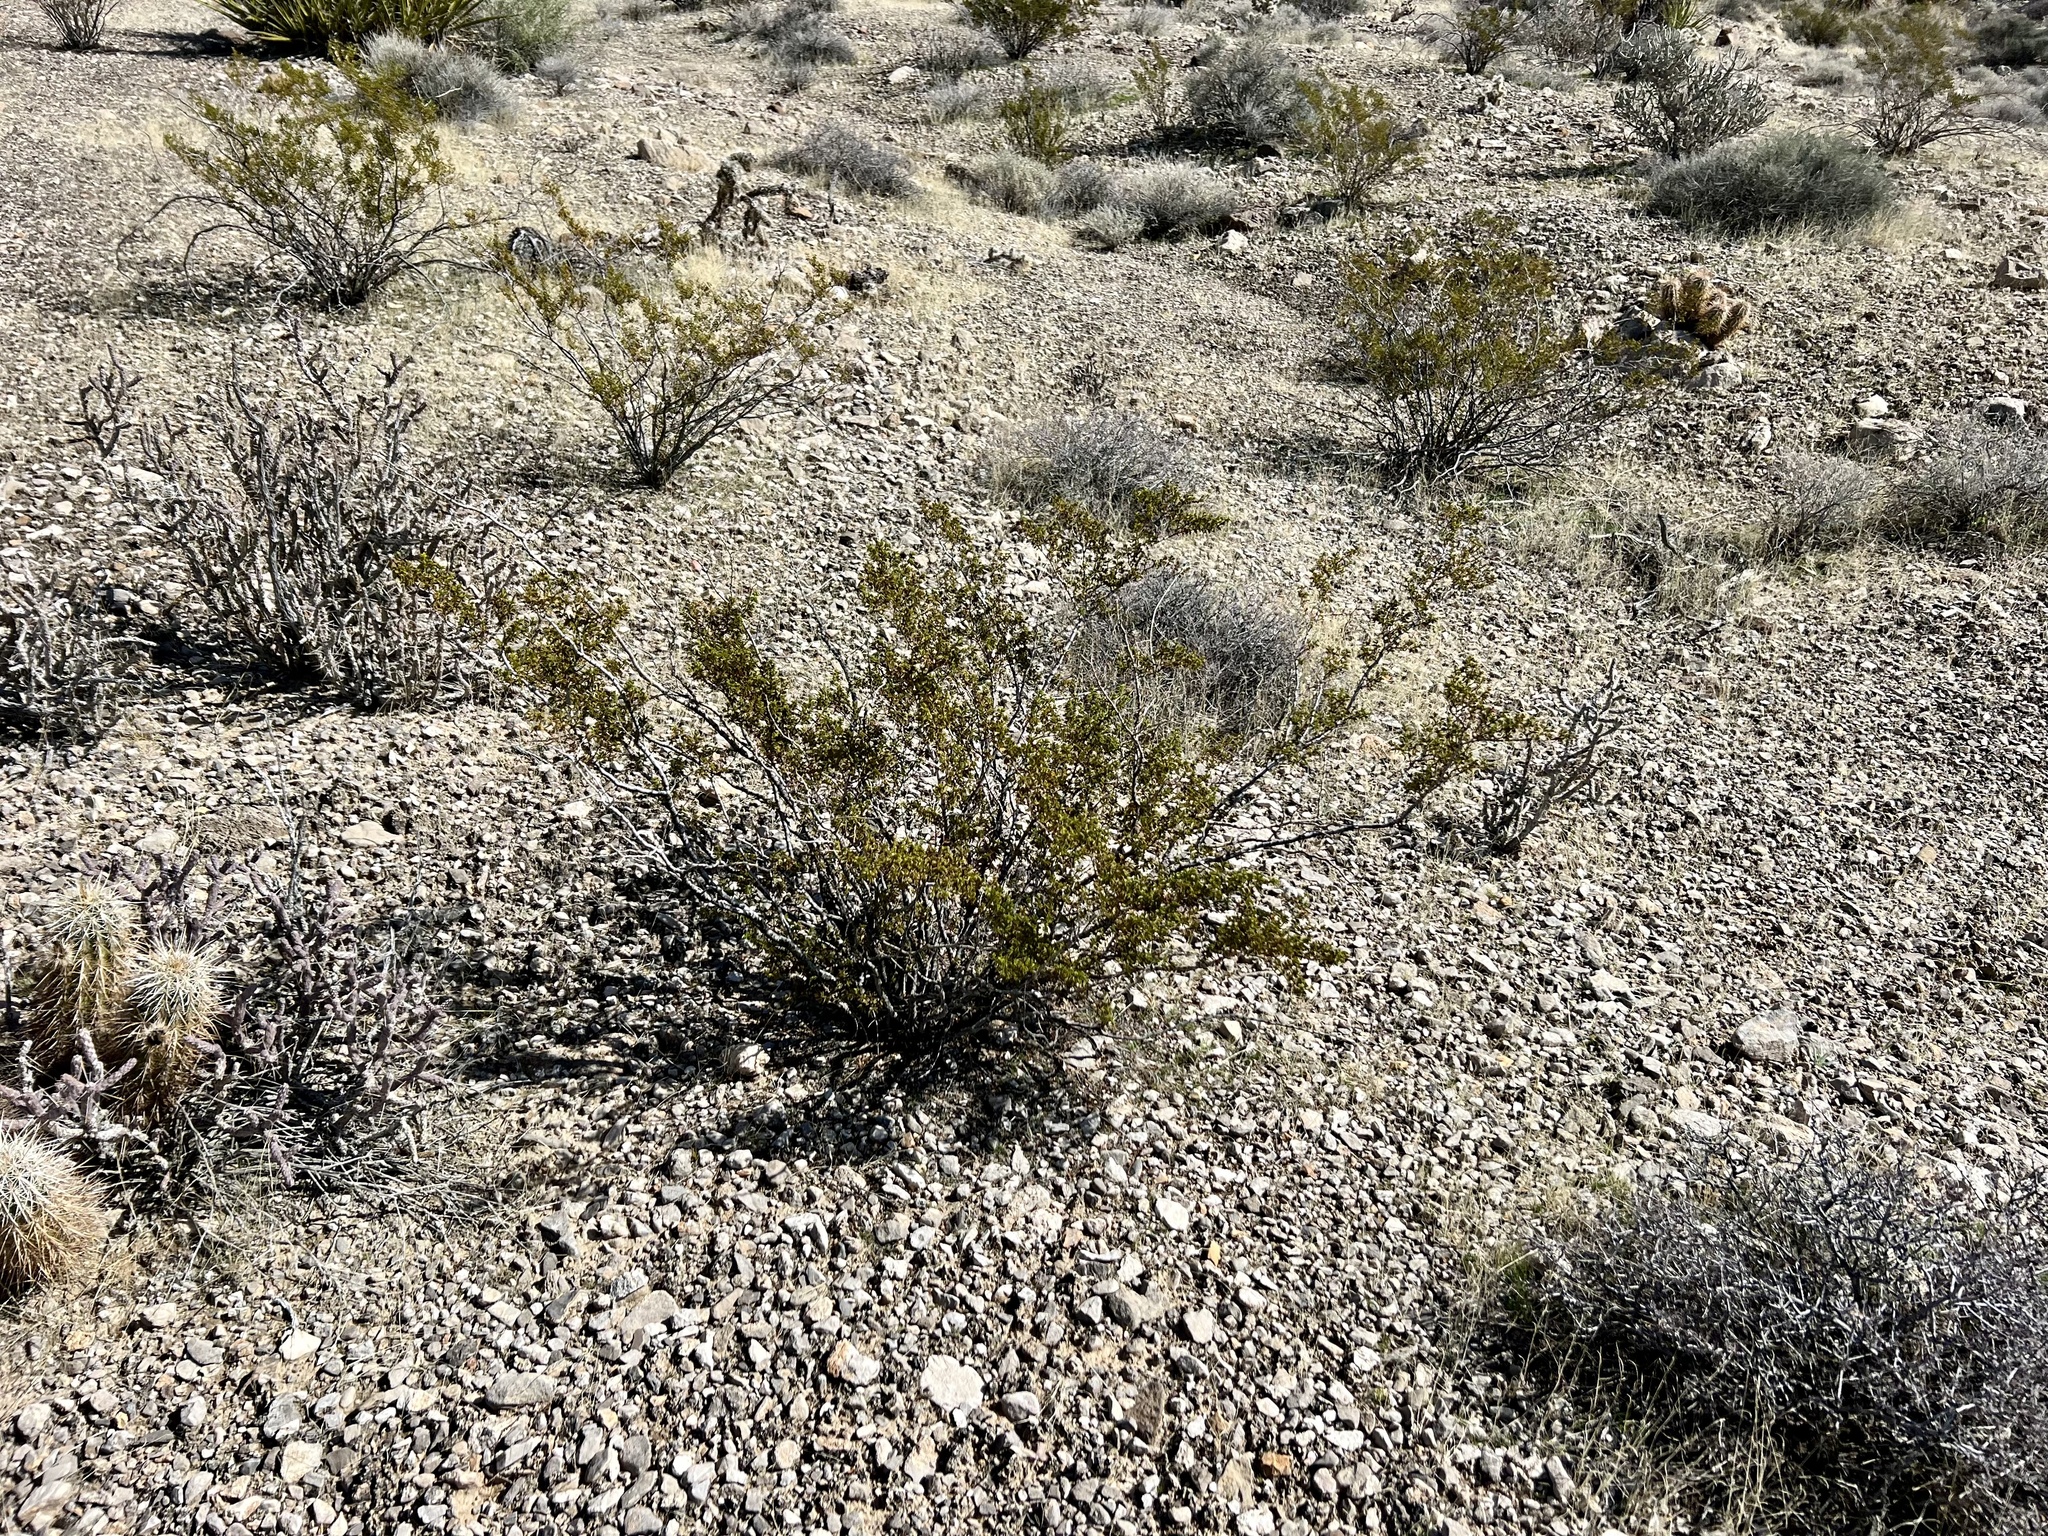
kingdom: Plantae
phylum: Tracheophyta
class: Magnoliopsida
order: Zygophyllales
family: Zygophyllaceae
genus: Larrea
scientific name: Larrea tridentata
